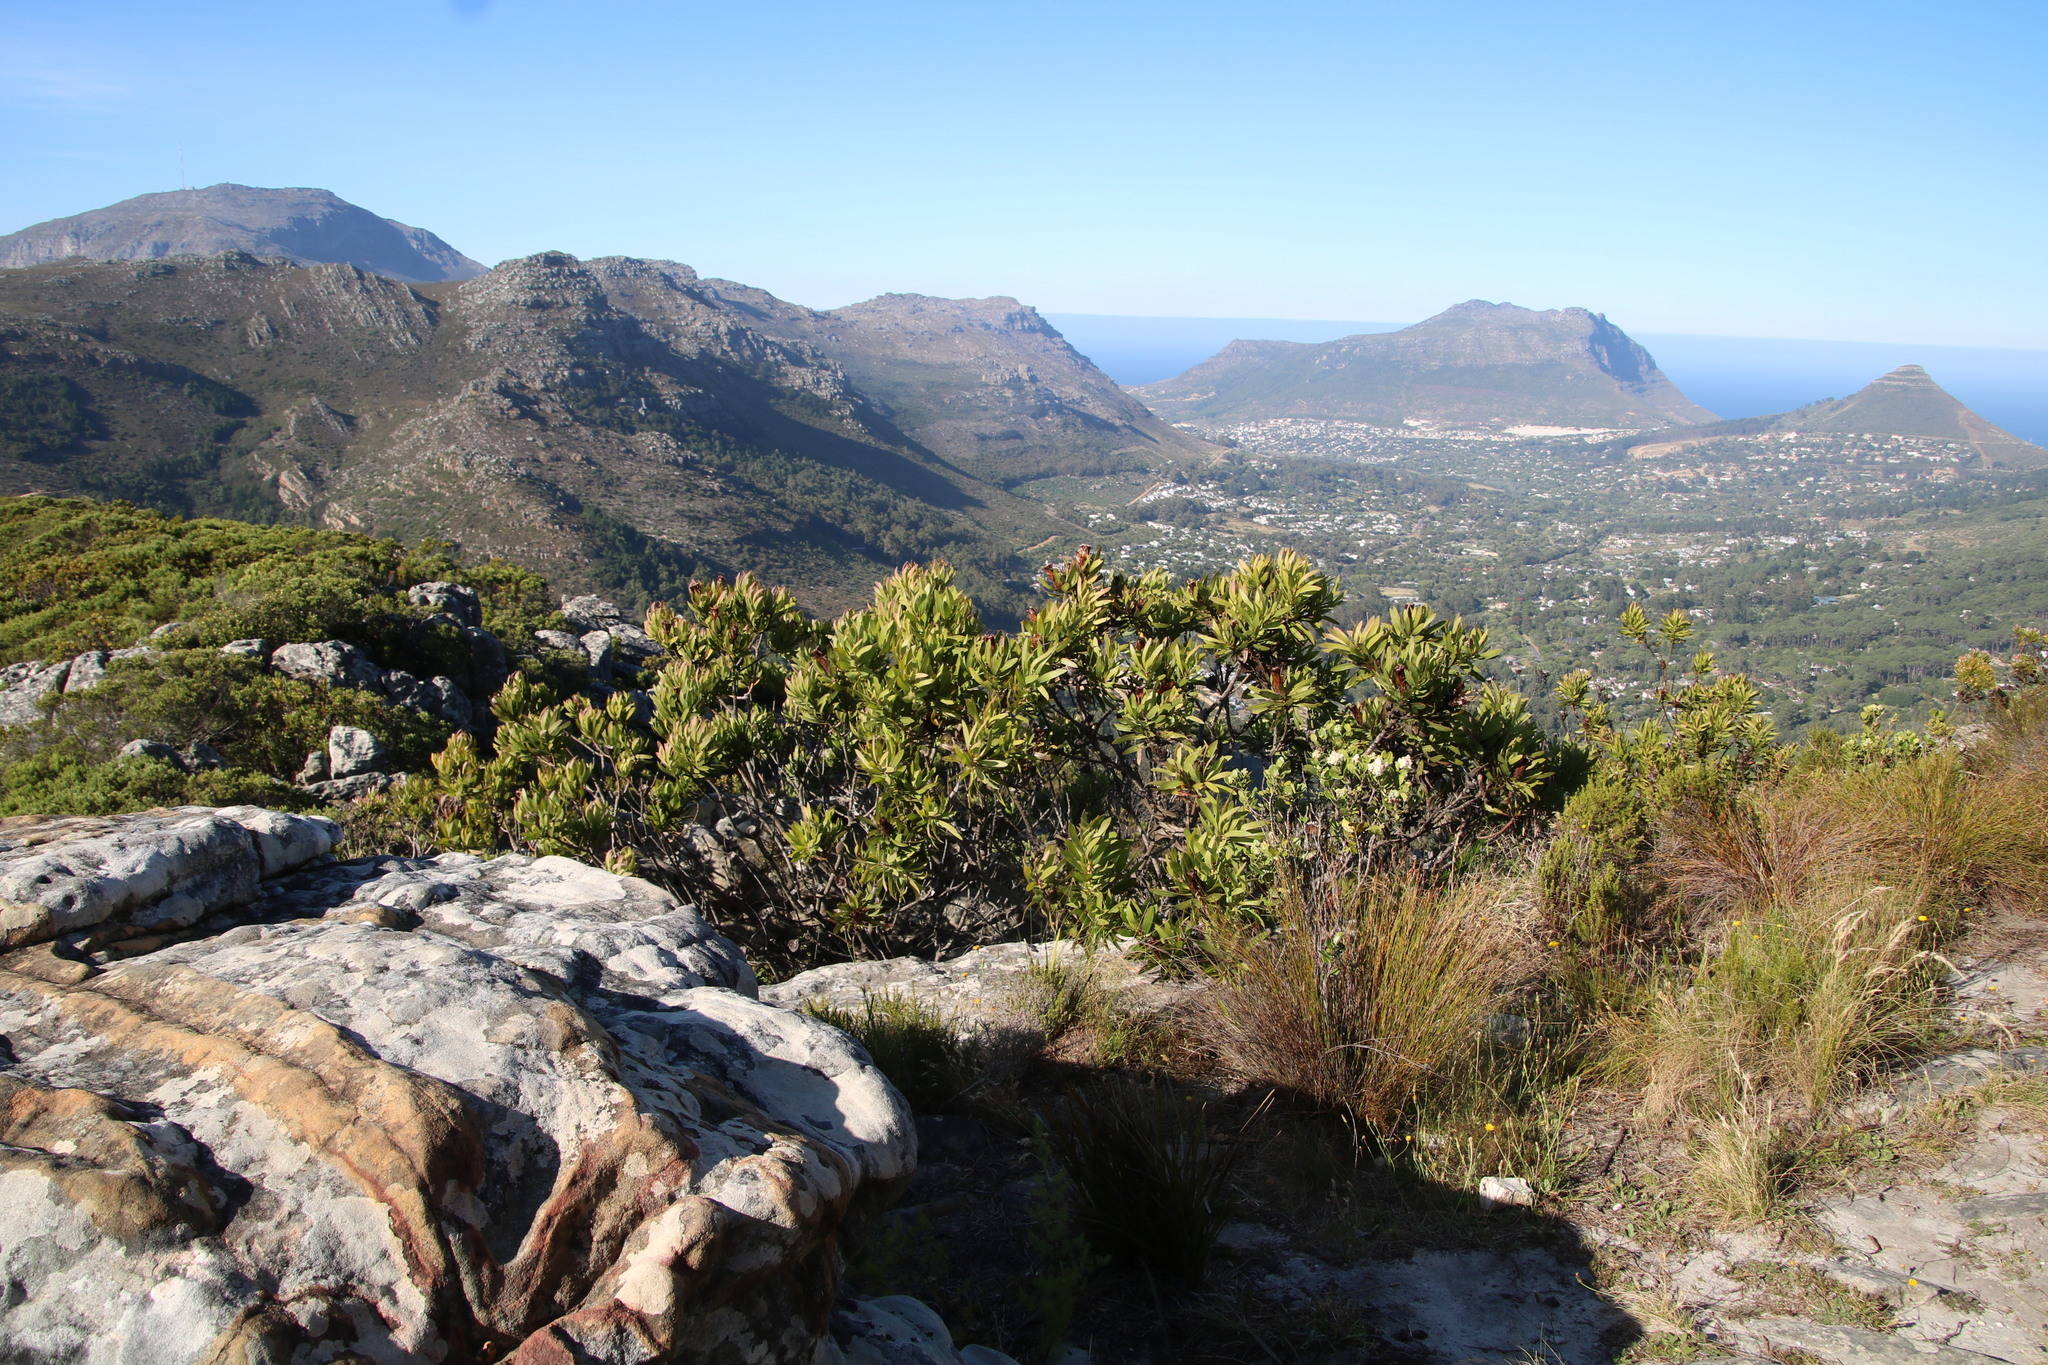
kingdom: Plantae
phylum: Tracheophyta
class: Magnoliopsida
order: Proteales
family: Proteaceae
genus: Protea
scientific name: Protea lepidocarpodendron
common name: Black-bearded protea
